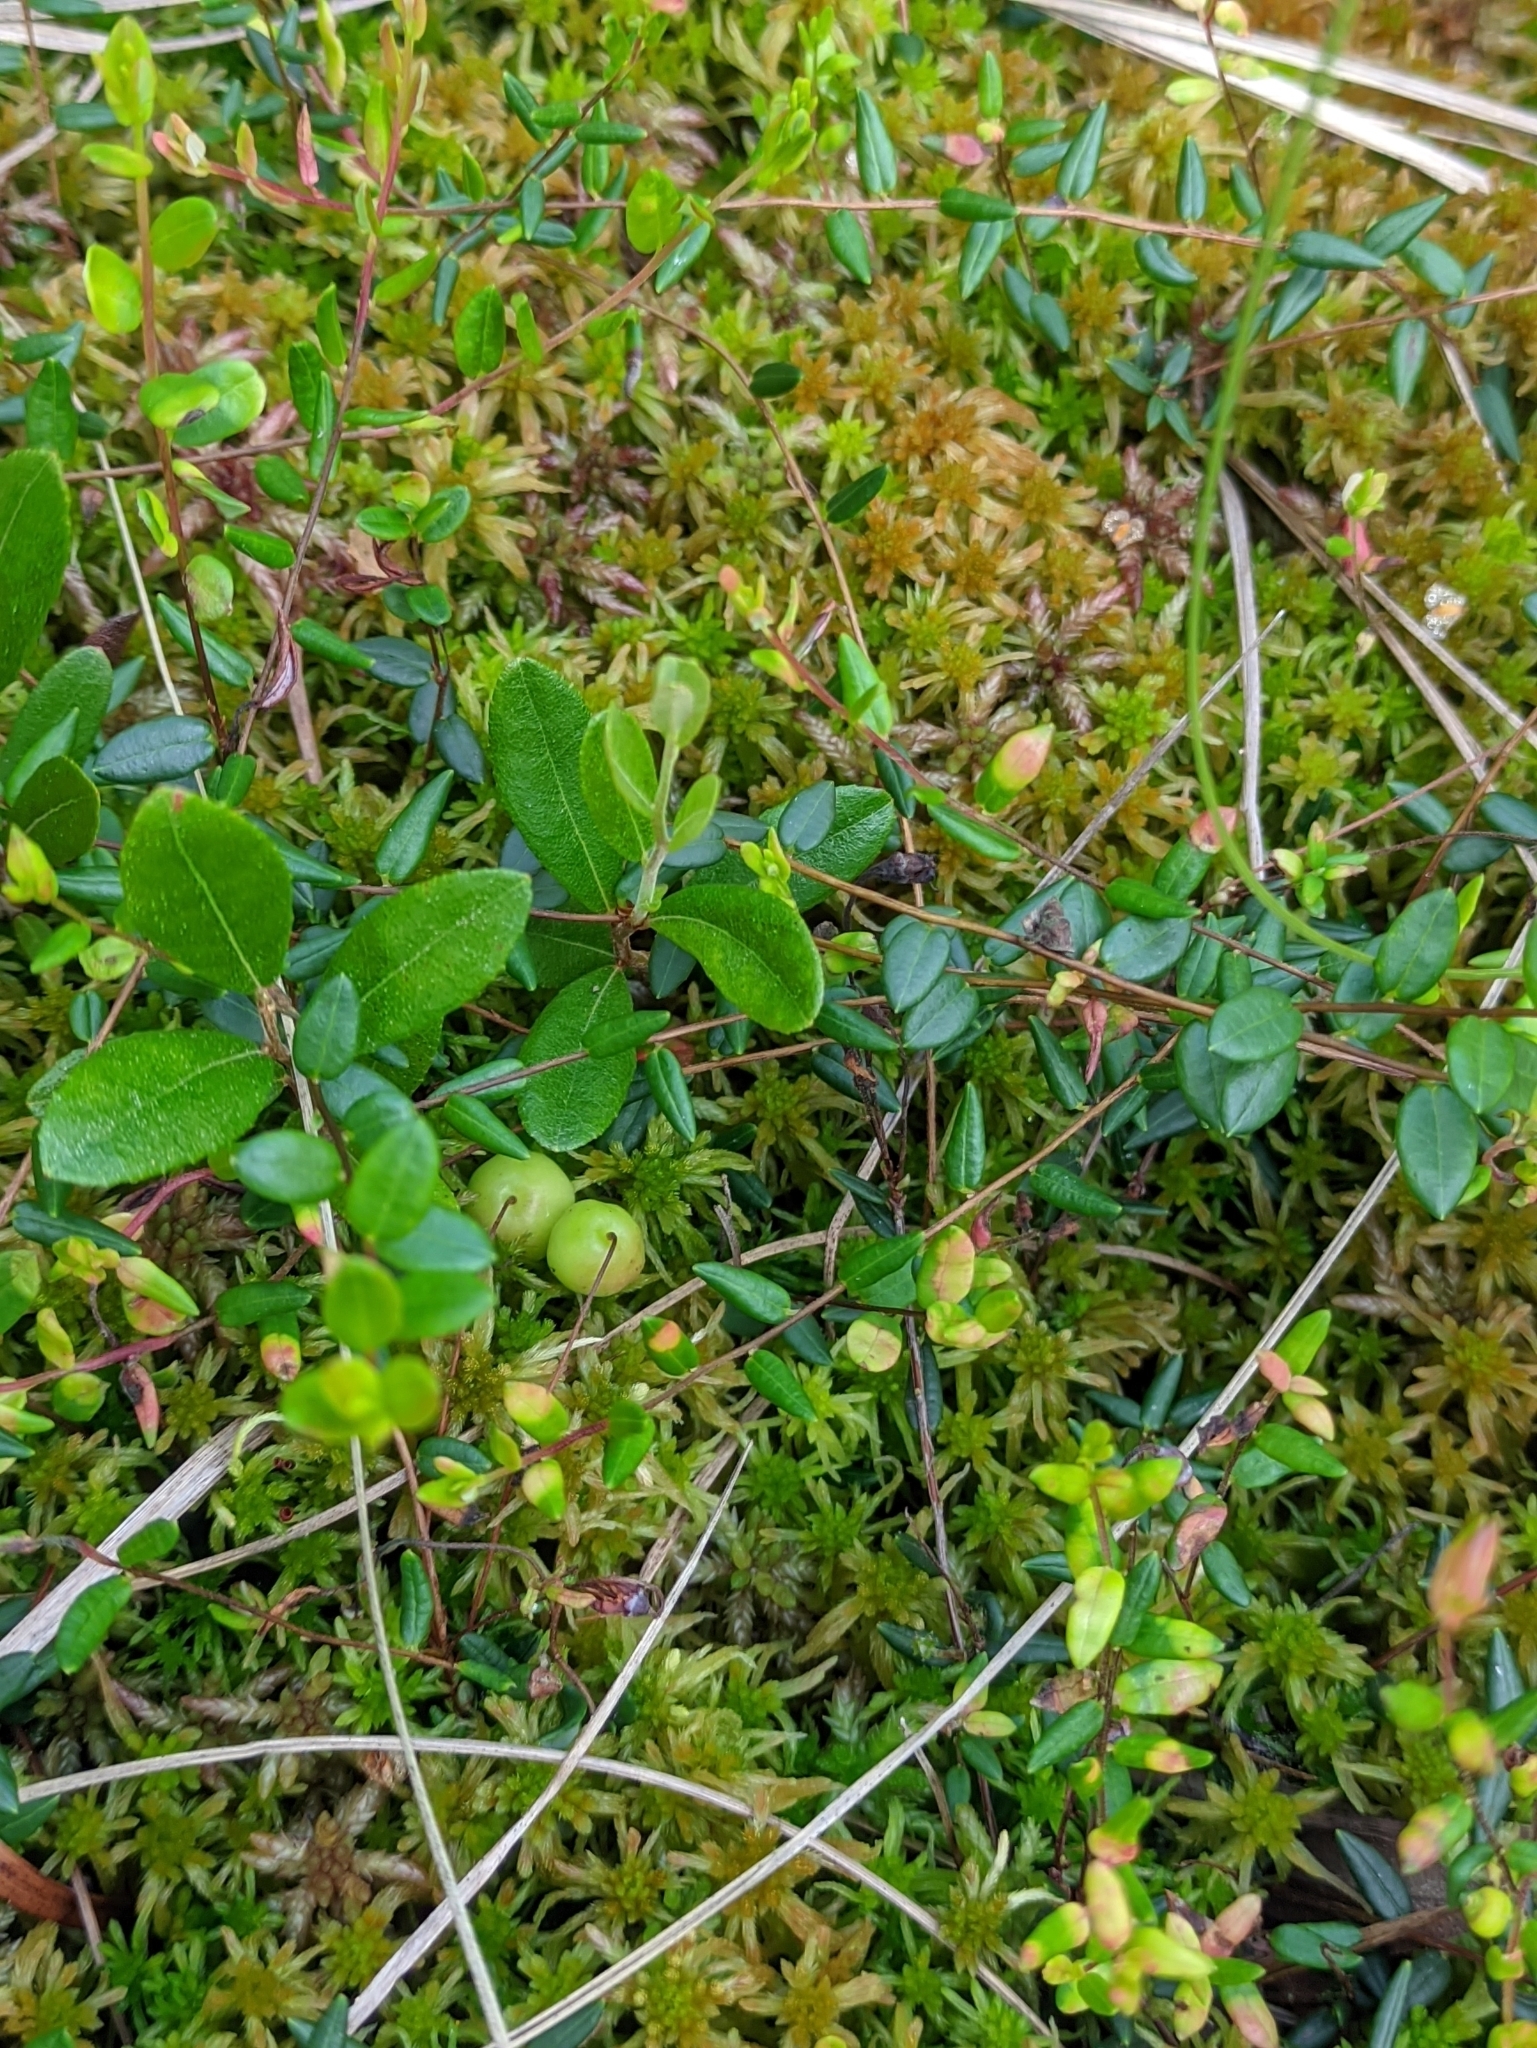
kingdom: Plantae
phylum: Tracheophyta
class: Magnoliopsida
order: Ericales
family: Ericaceae
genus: Vaccinium
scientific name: Vaccinium oxycoccos
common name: Cranberry
